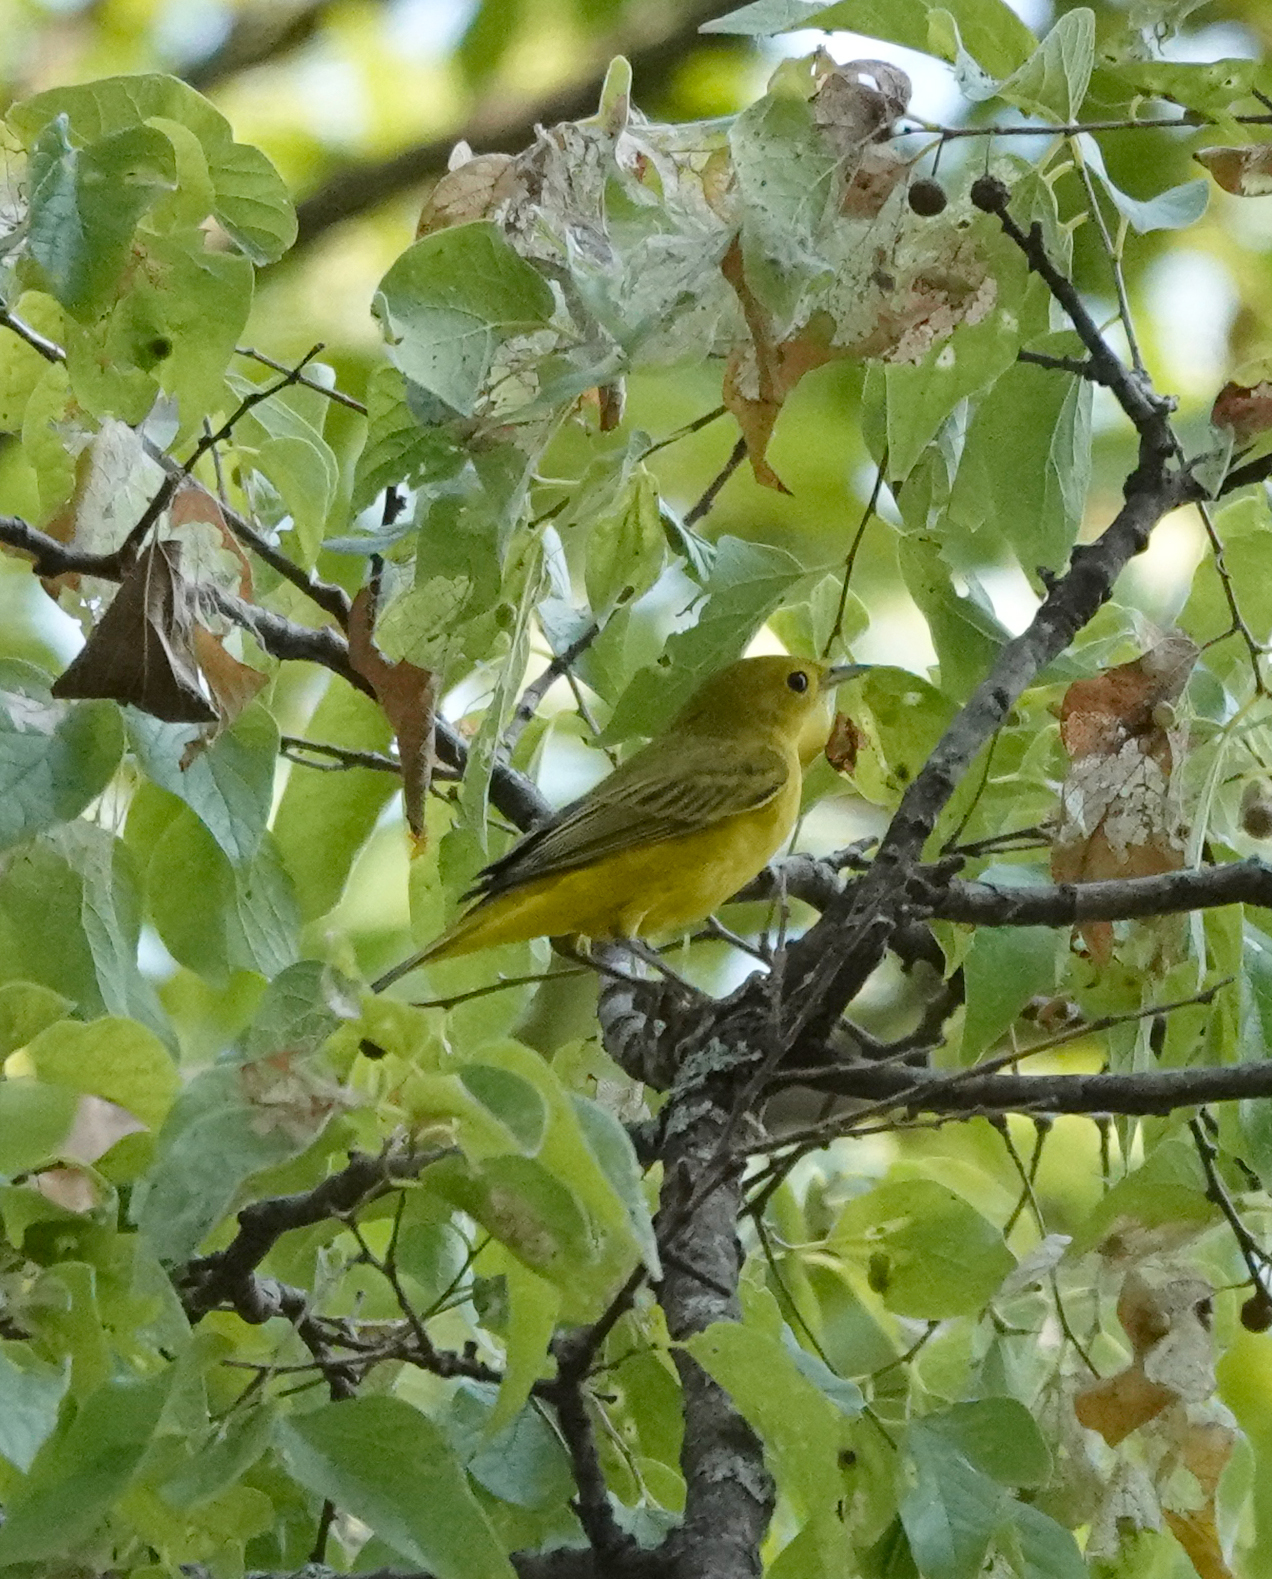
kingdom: Animalia
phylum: Chordata
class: Aves
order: Passeriformes
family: Parulidae
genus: Setophaga
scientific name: Setophaga petechia
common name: Yellow warbler
